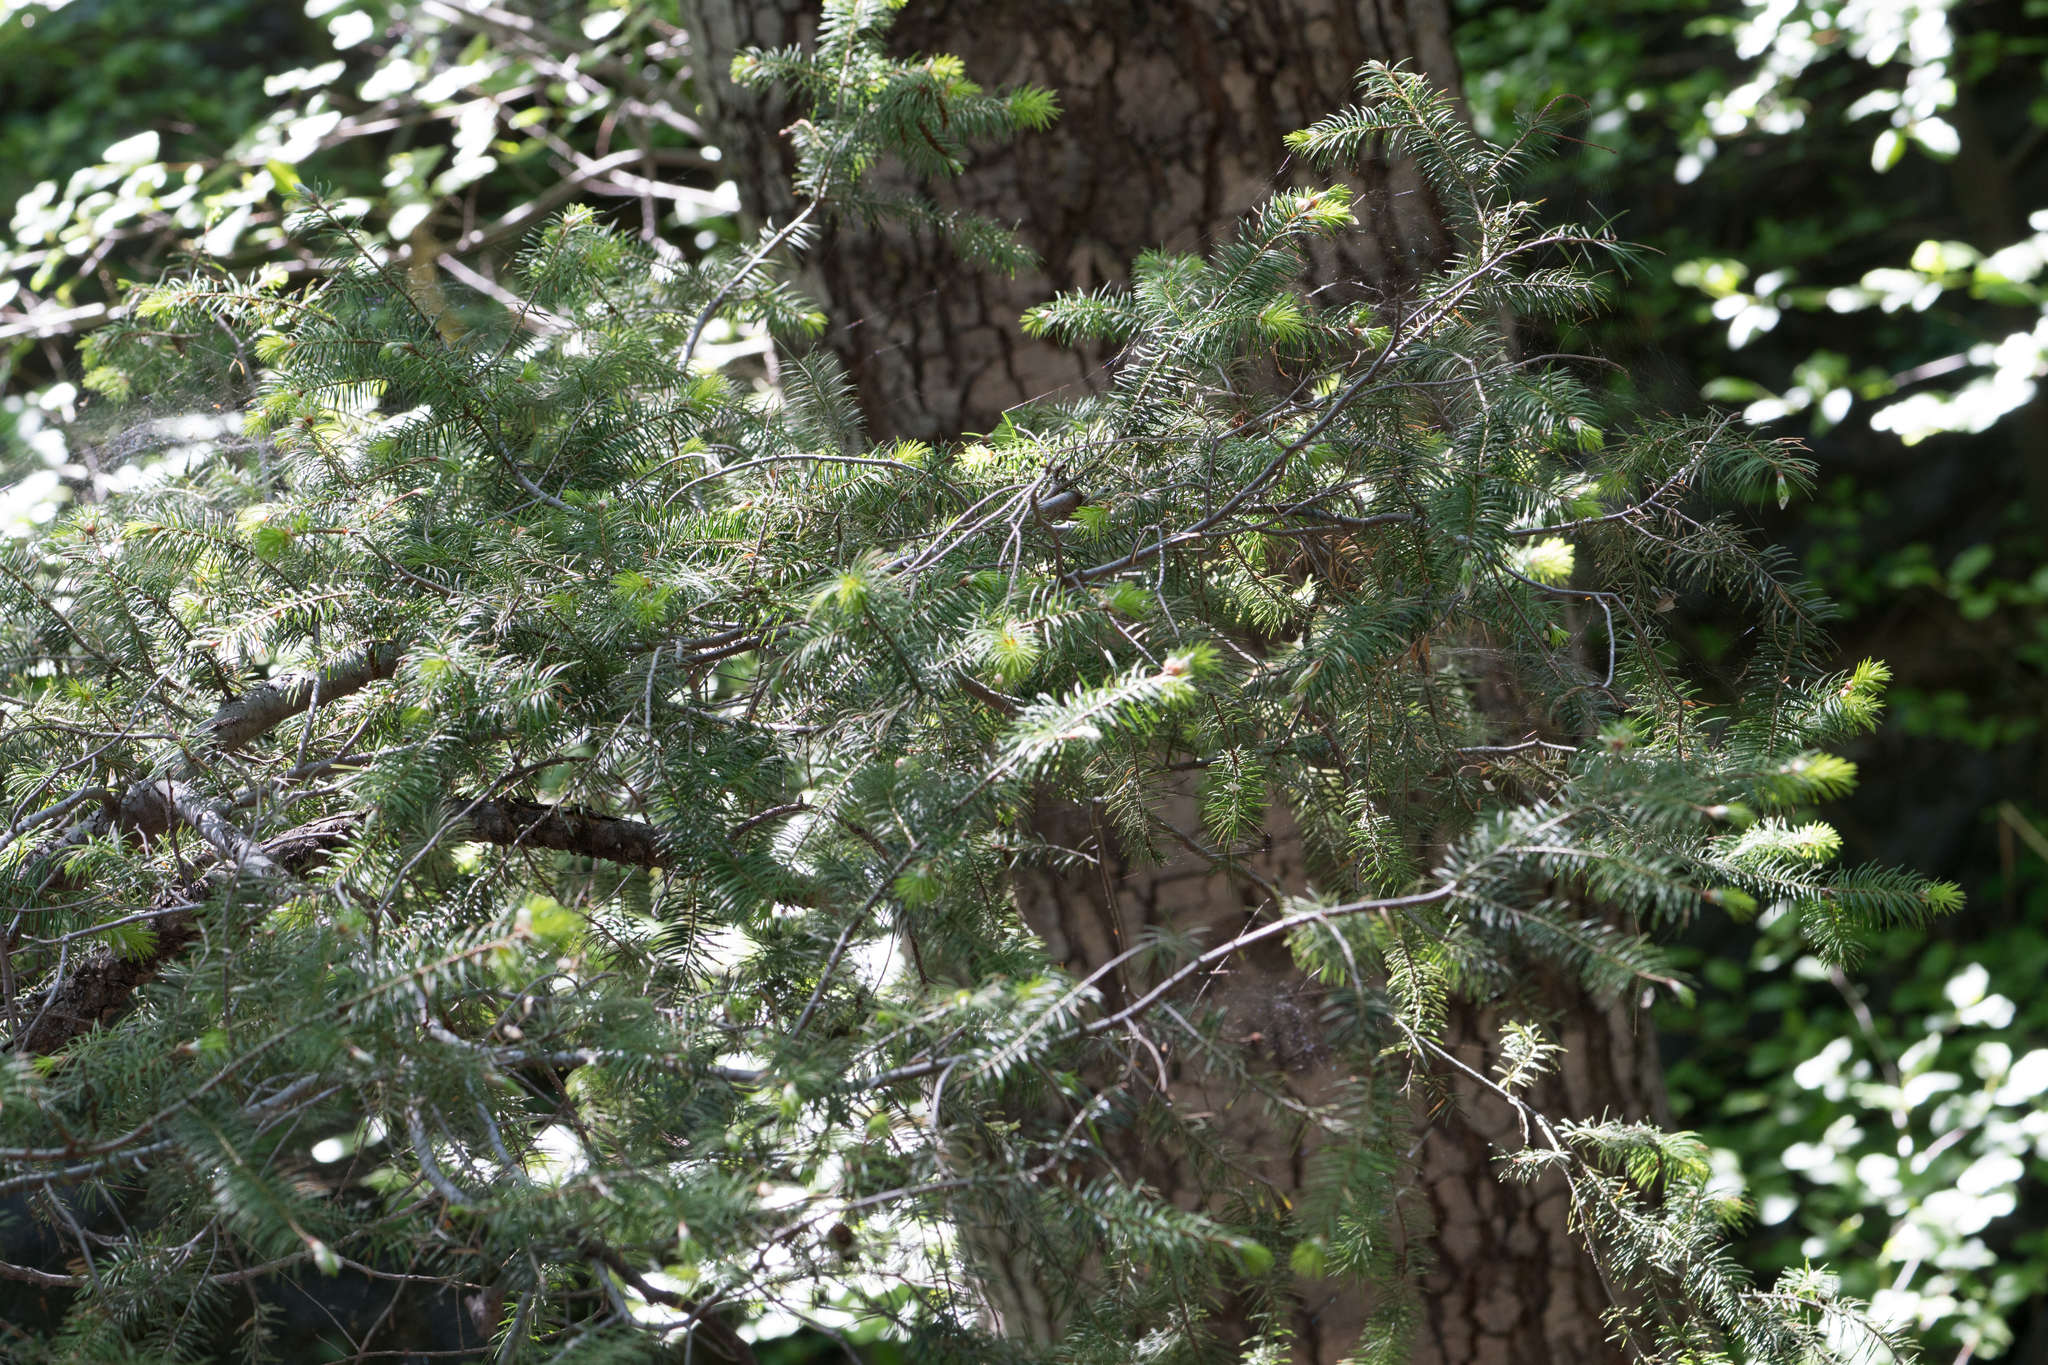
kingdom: Plantae
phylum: Tracheophyta
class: Pinopsida
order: Pinales
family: Pinaceae
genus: Pseudotsuga
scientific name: Pseudotsuga macrocarpa
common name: Big-cone douglas-fir
